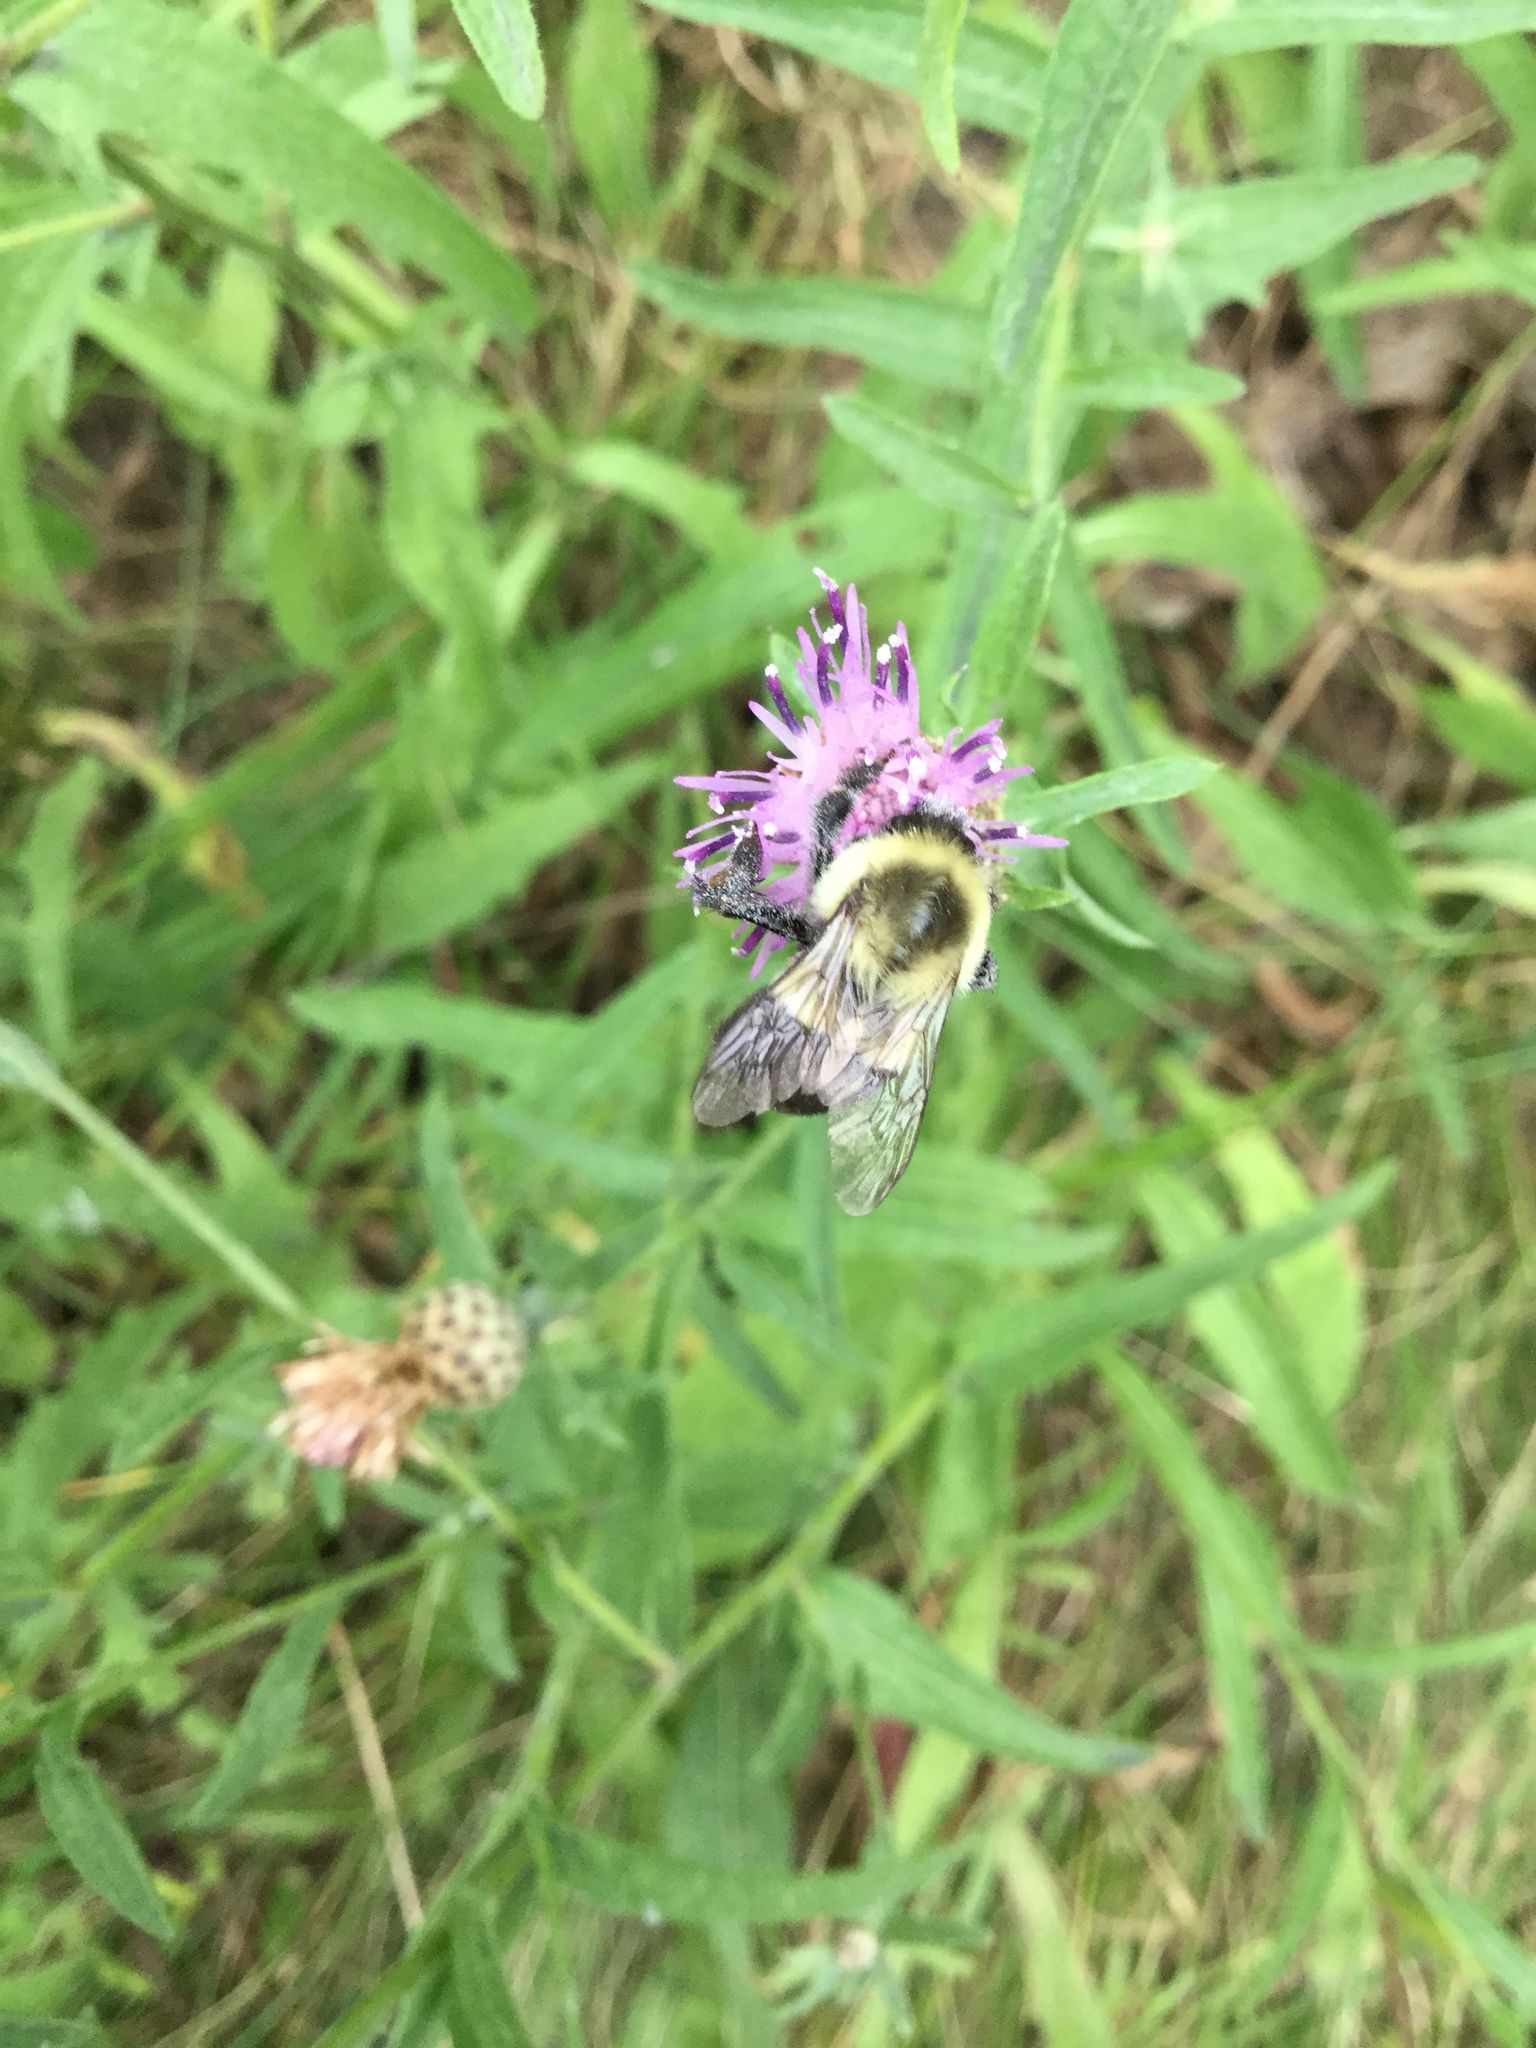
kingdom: Animalia
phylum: Arthropoda
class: Insecta
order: Hymenoptera
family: Apidae
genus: Bombus
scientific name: Bombus impatiens
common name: Common eastern bumble bee
